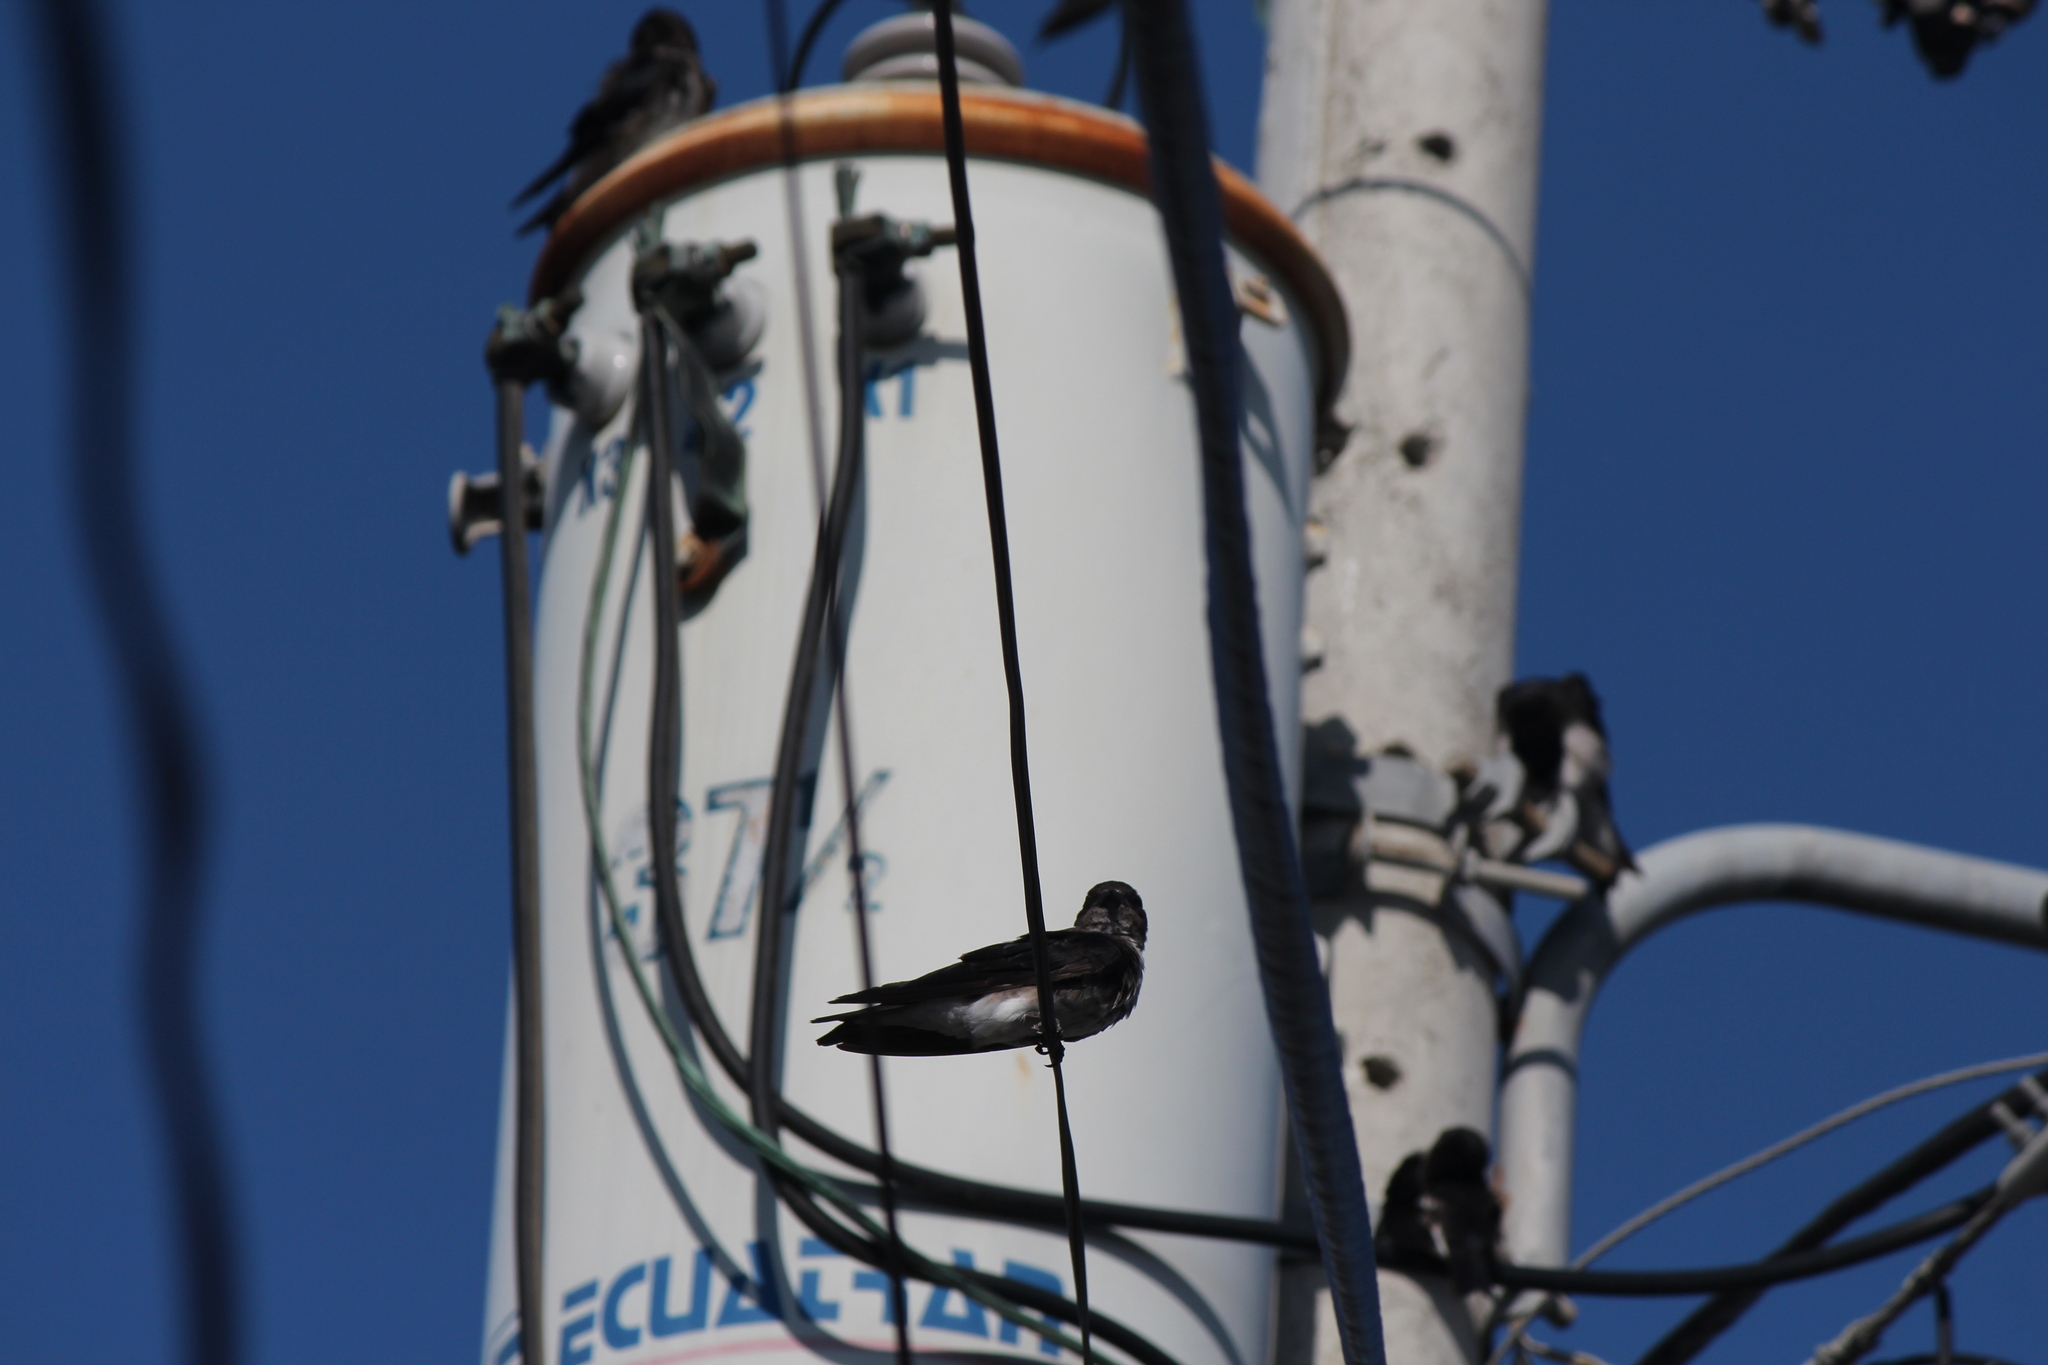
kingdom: Animalia
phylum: Chordata
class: Aves
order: Passeriformes
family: Hirundinidae
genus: Progne
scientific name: Progne chalybea
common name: Grey-breasted martin
